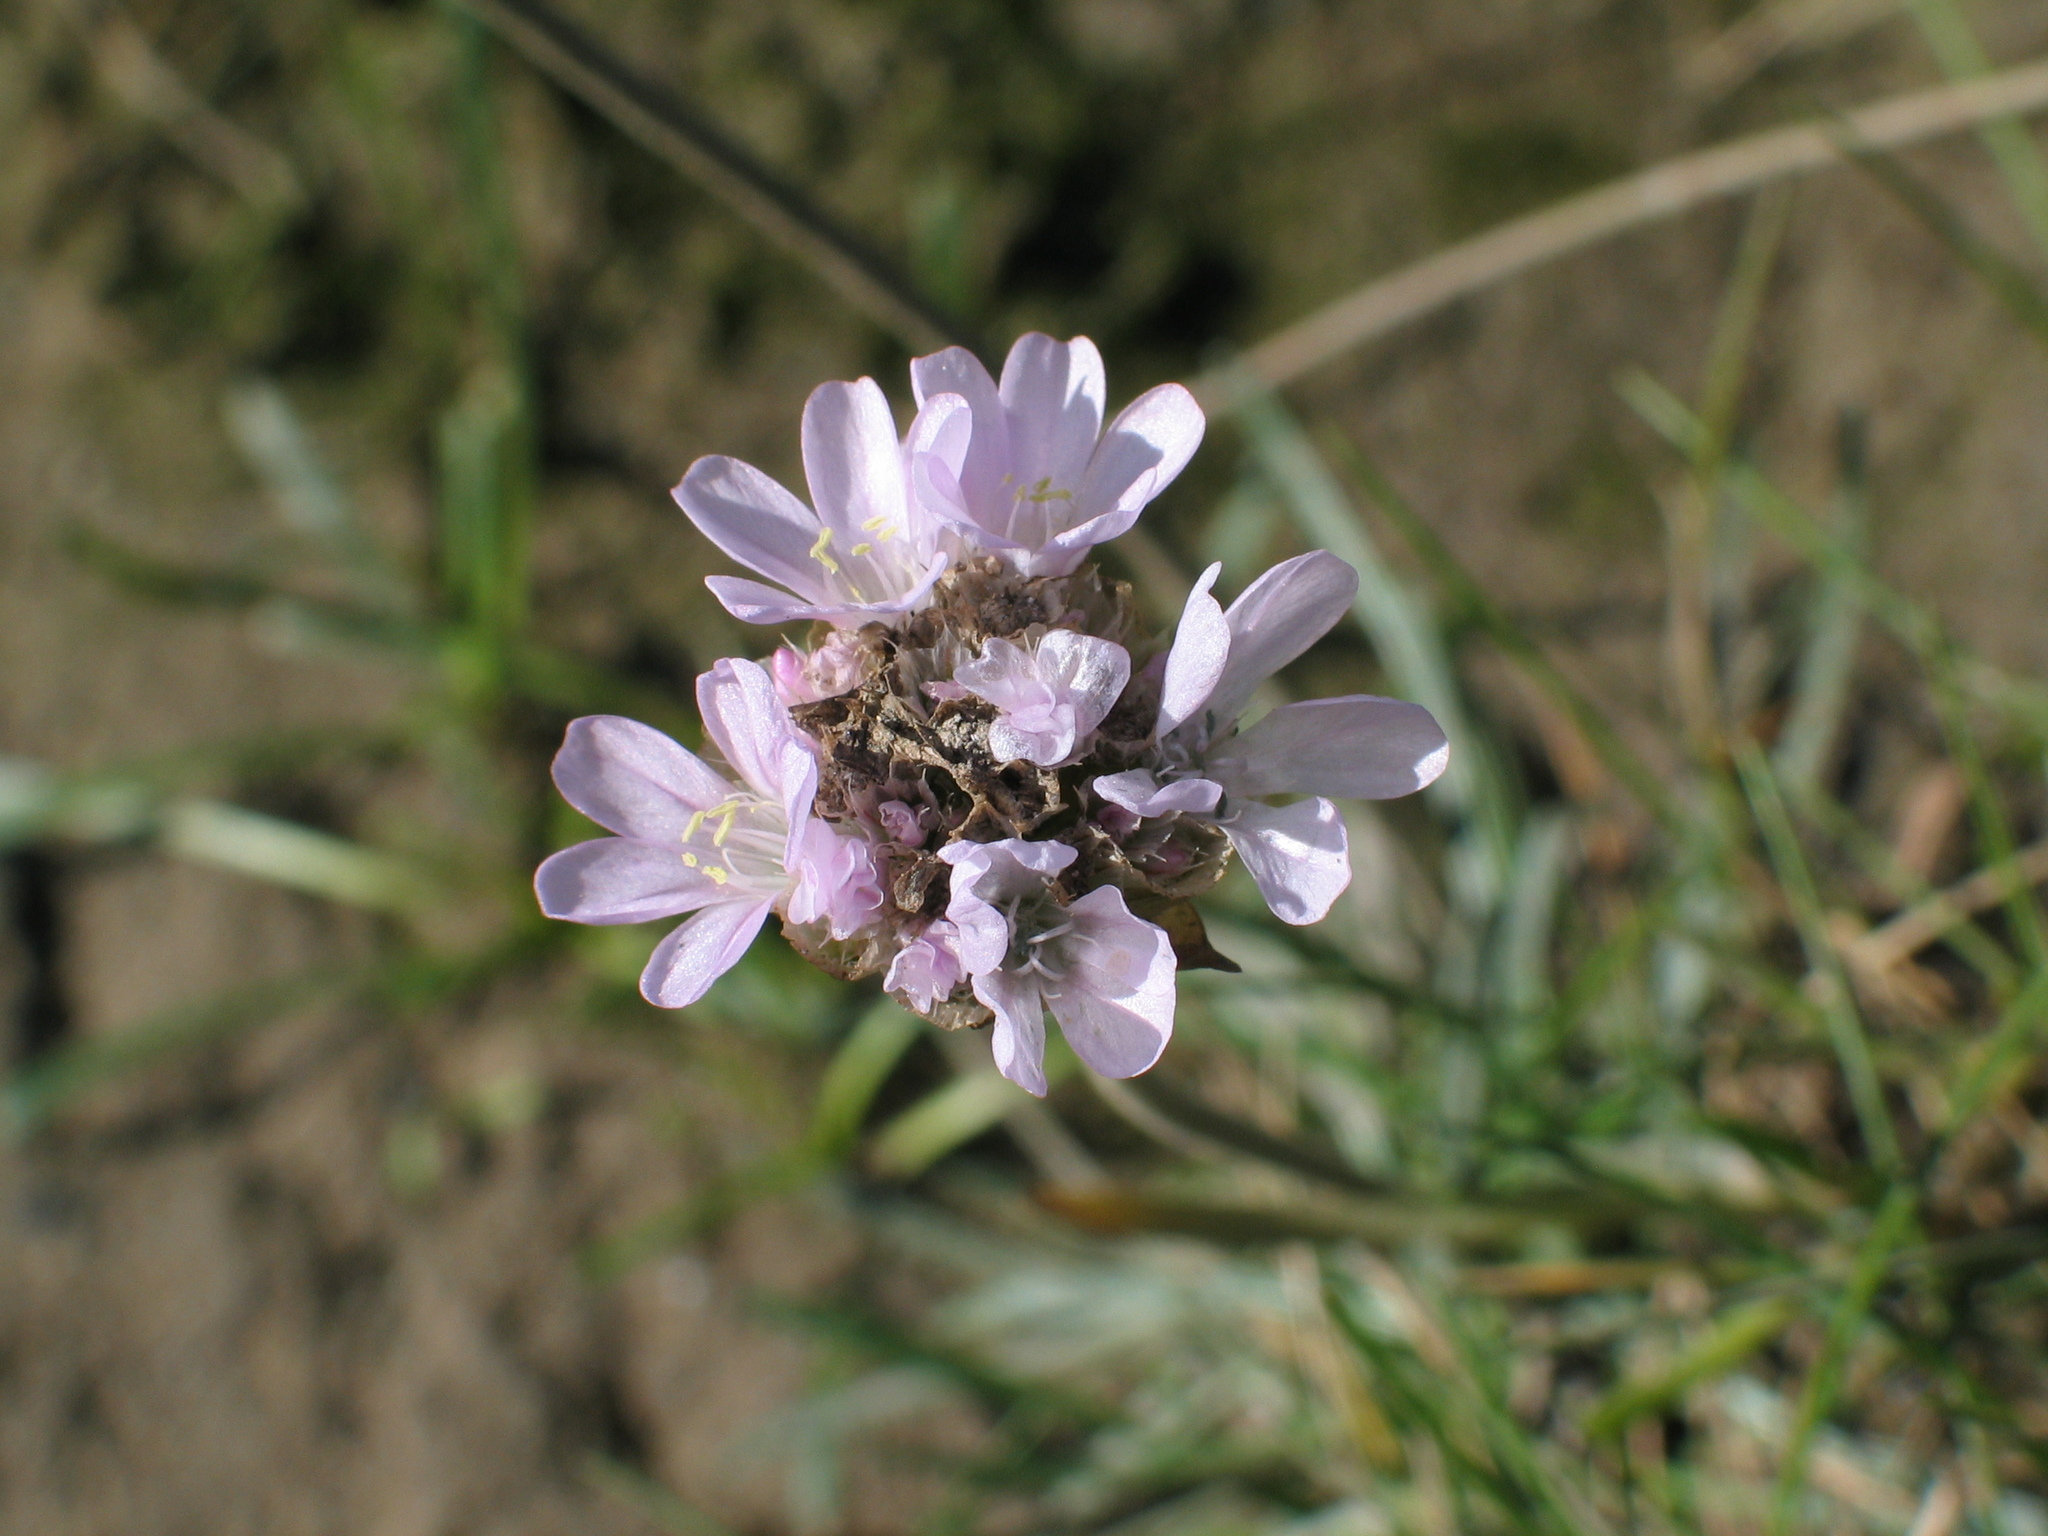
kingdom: Plantae
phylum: Tracheophyta
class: Magnoliopsida
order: Caryophyllales
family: Plumbaginaceae
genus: Armeria
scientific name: Armeria maritima
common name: Thrift
